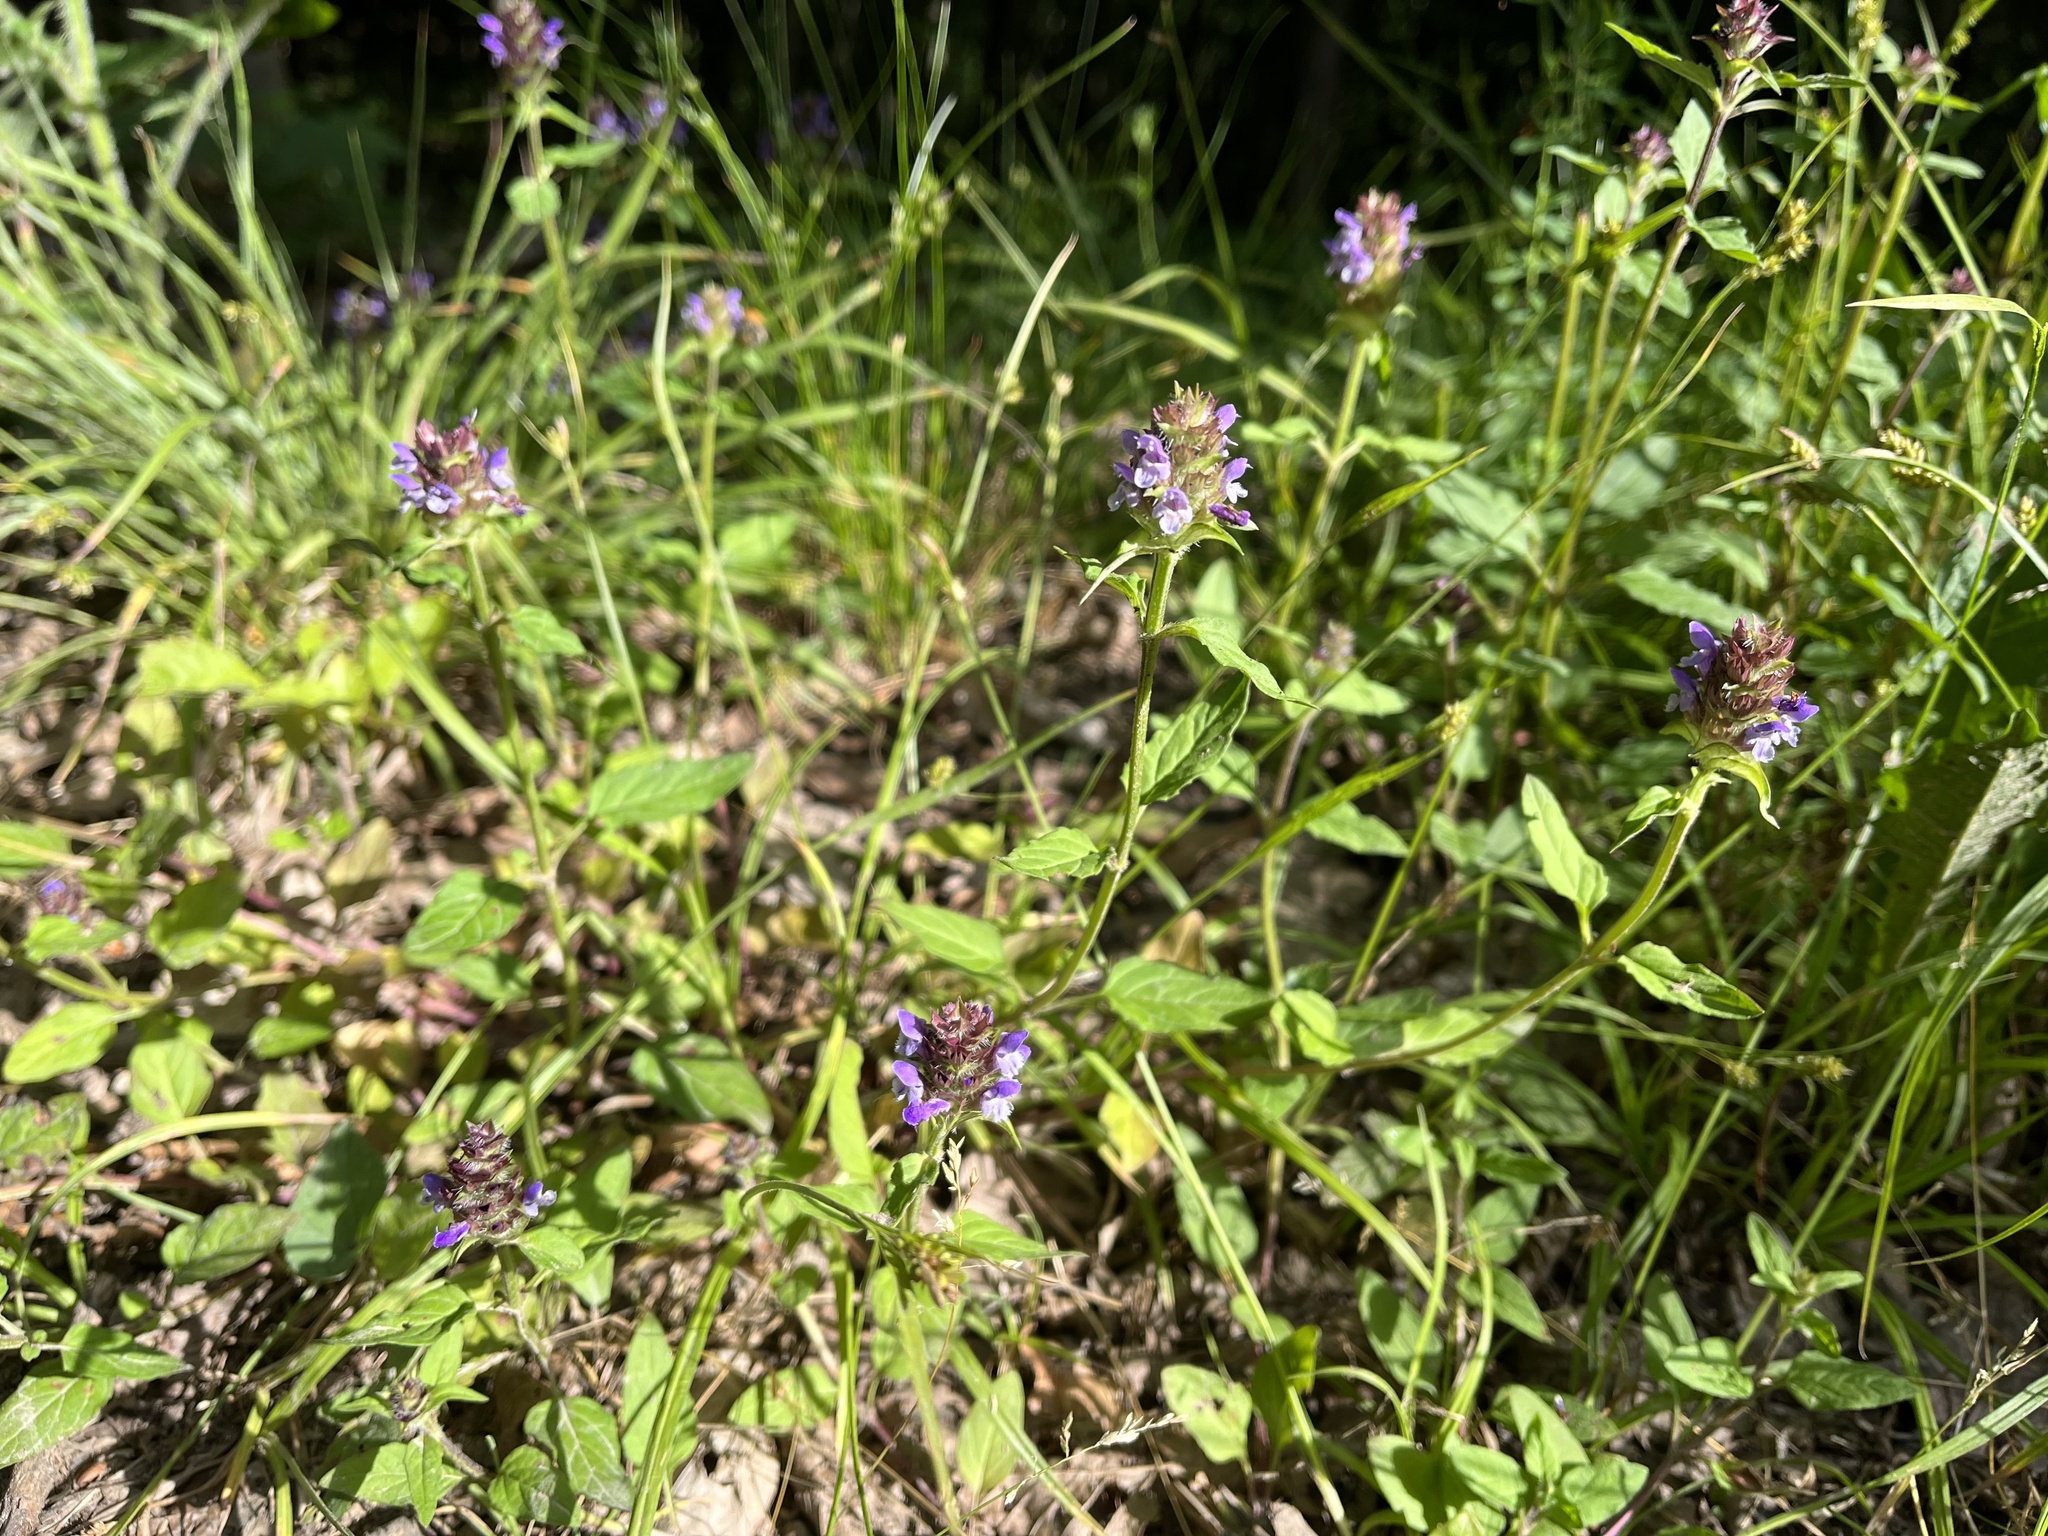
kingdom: Plantae
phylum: Tracheophyta
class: Magnoliopsida
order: Lamiales
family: Lamiaceae
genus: Prunella
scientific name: Prunella vulgaris
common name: Heal-all
